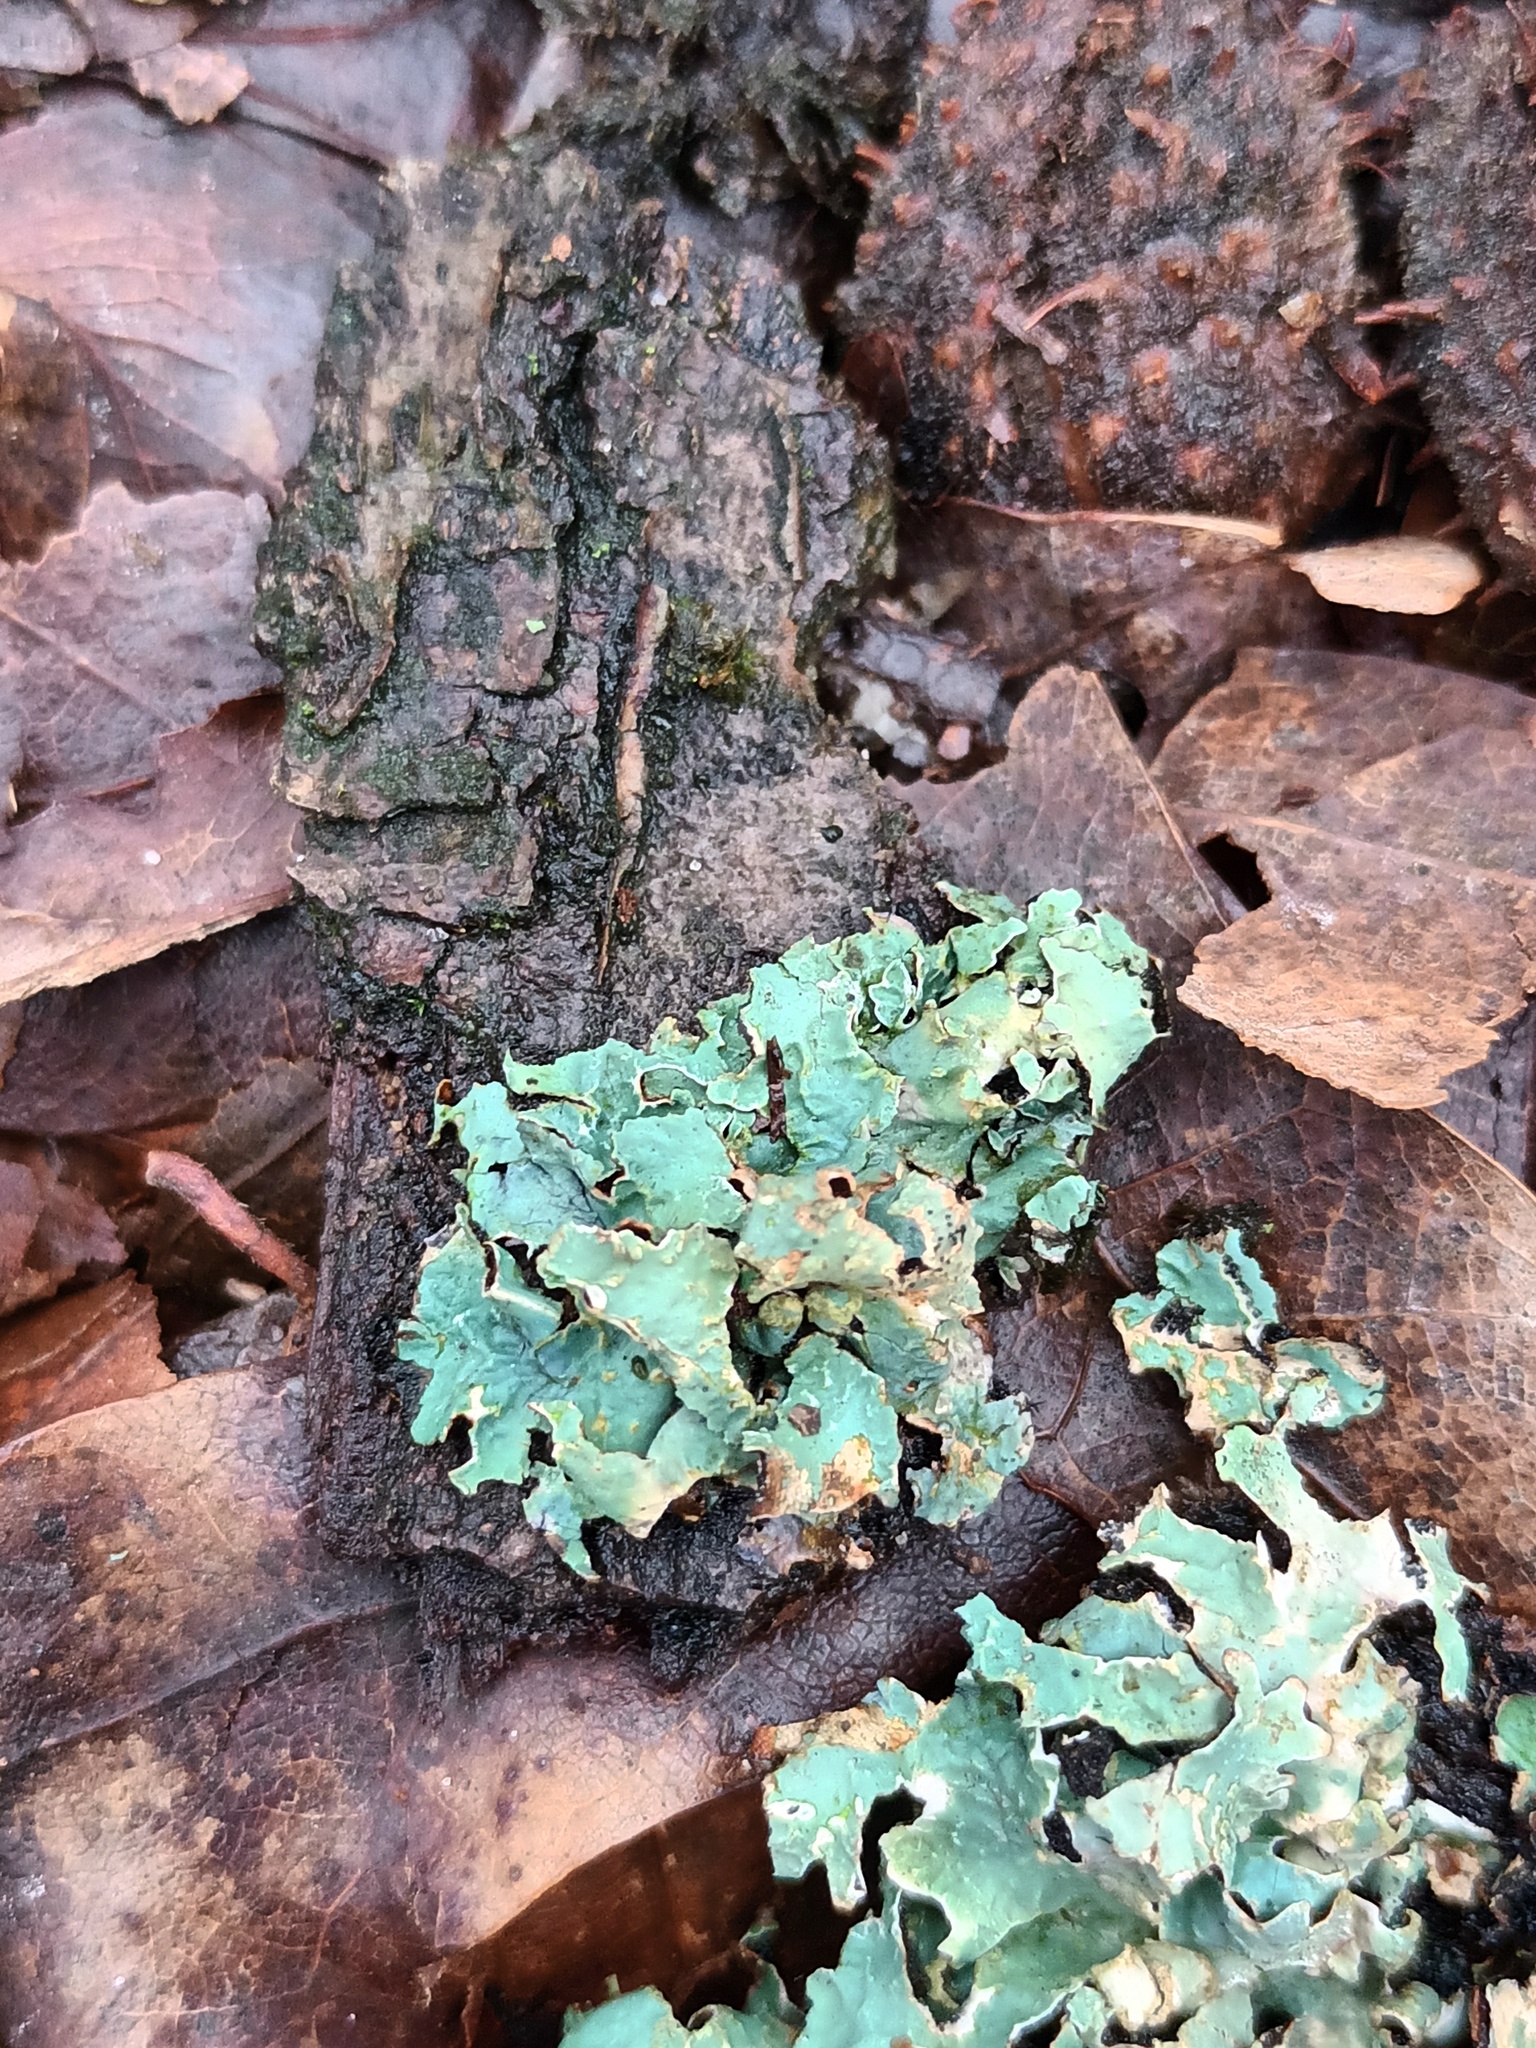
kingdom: Fungi
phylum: Ascomycota
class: Lecanoromycetes
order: Lecanorales
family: Parmeliaceae
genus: Parmelia
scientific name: Parmelia sulcata
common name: Netted shield lichen
